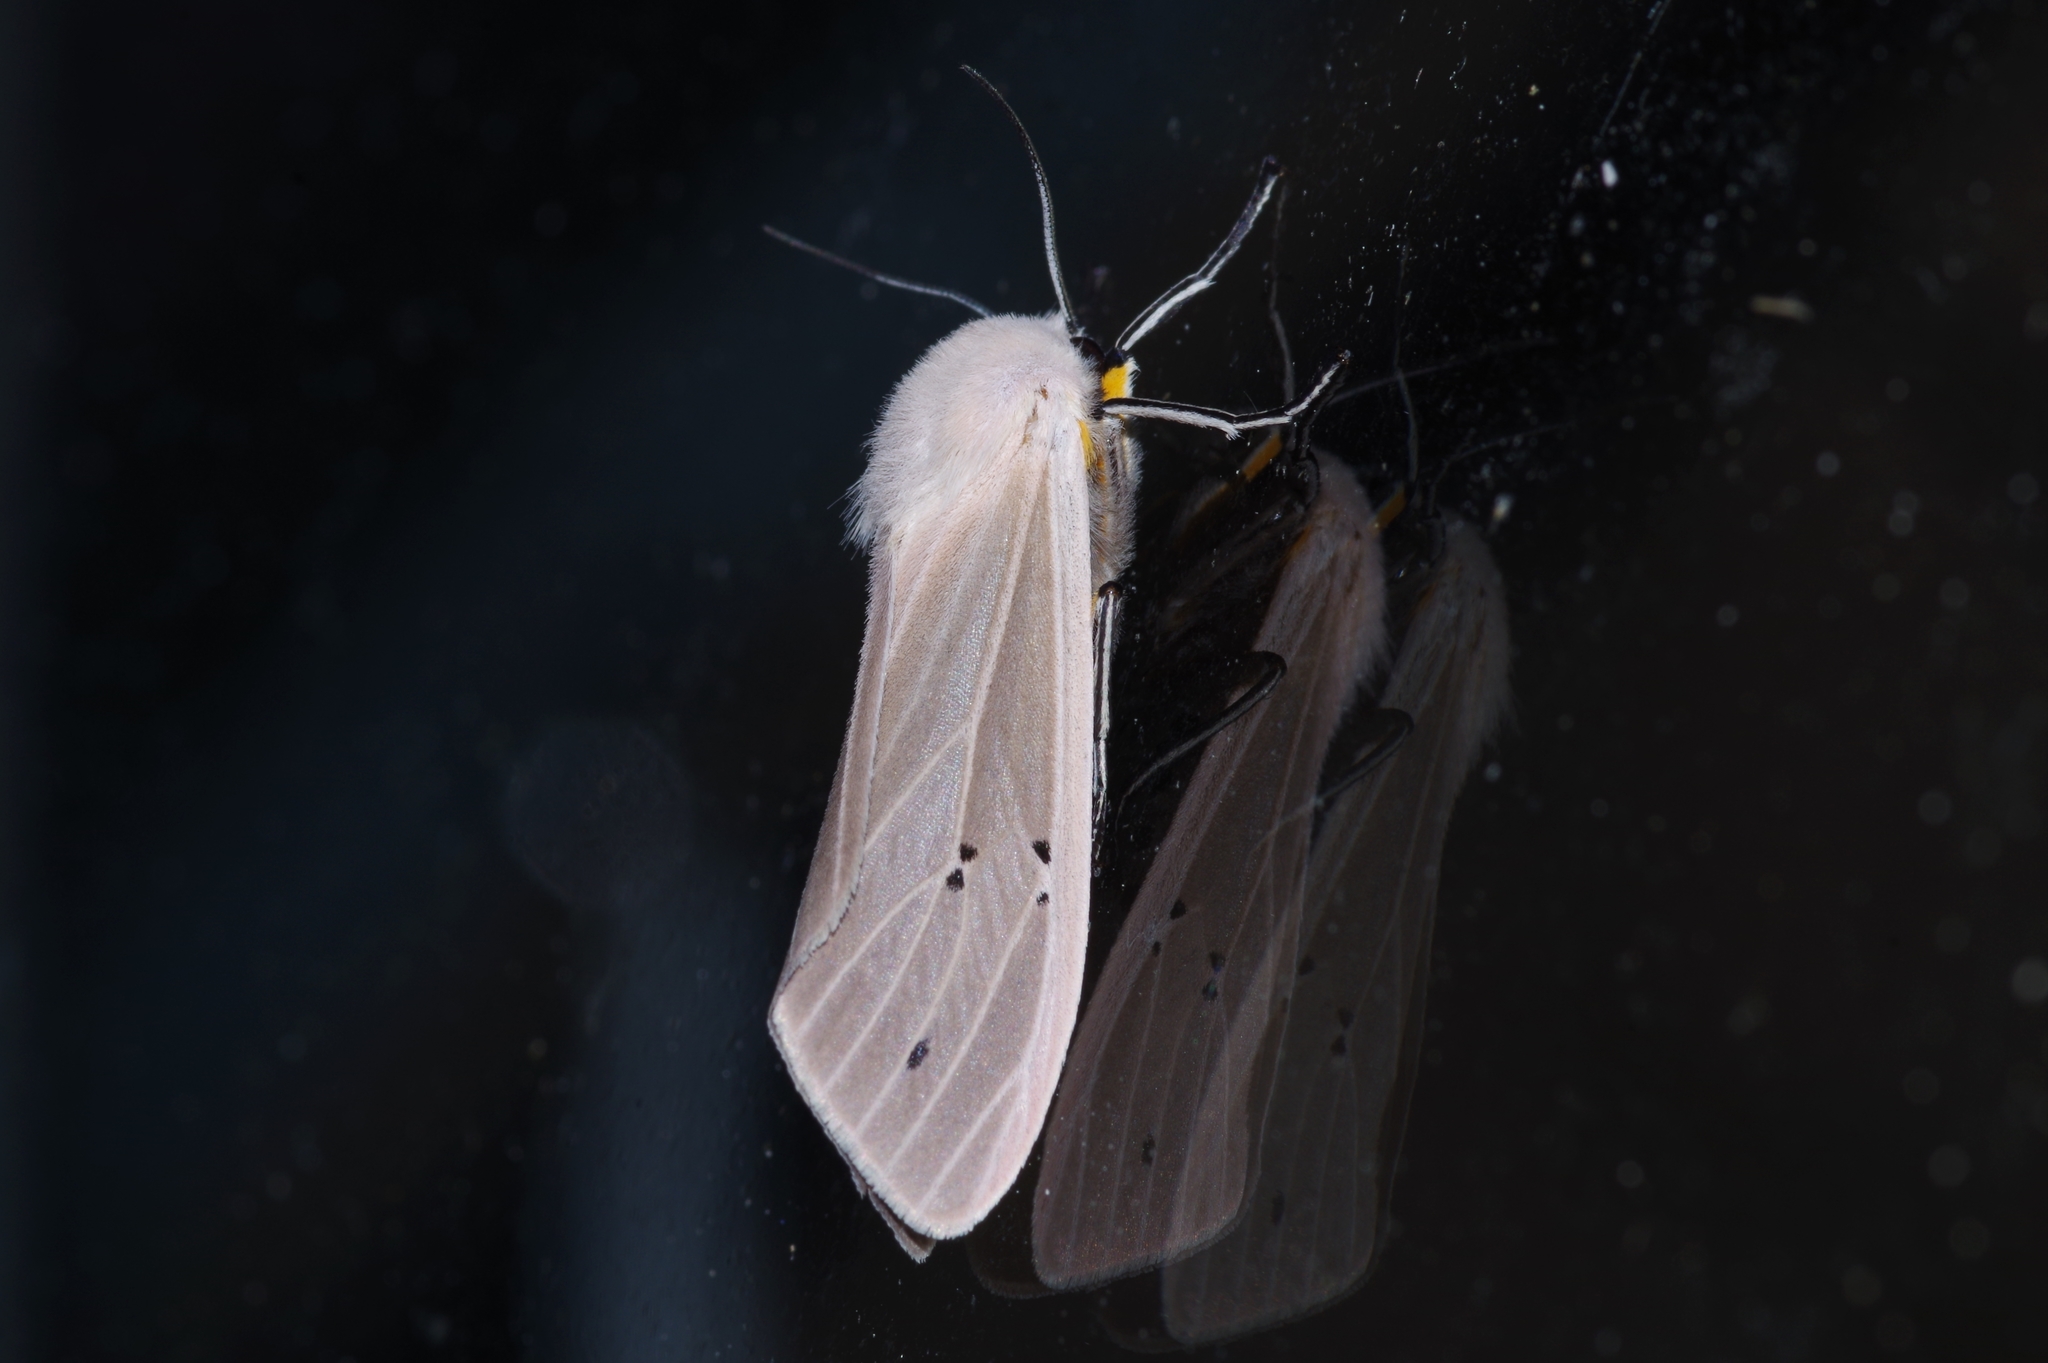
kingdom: Animalia
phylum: Arthropoda
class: Insecta
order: Lepidoptera
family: Erebidae
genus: Creatonotos
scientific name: Creatonotos transiens
